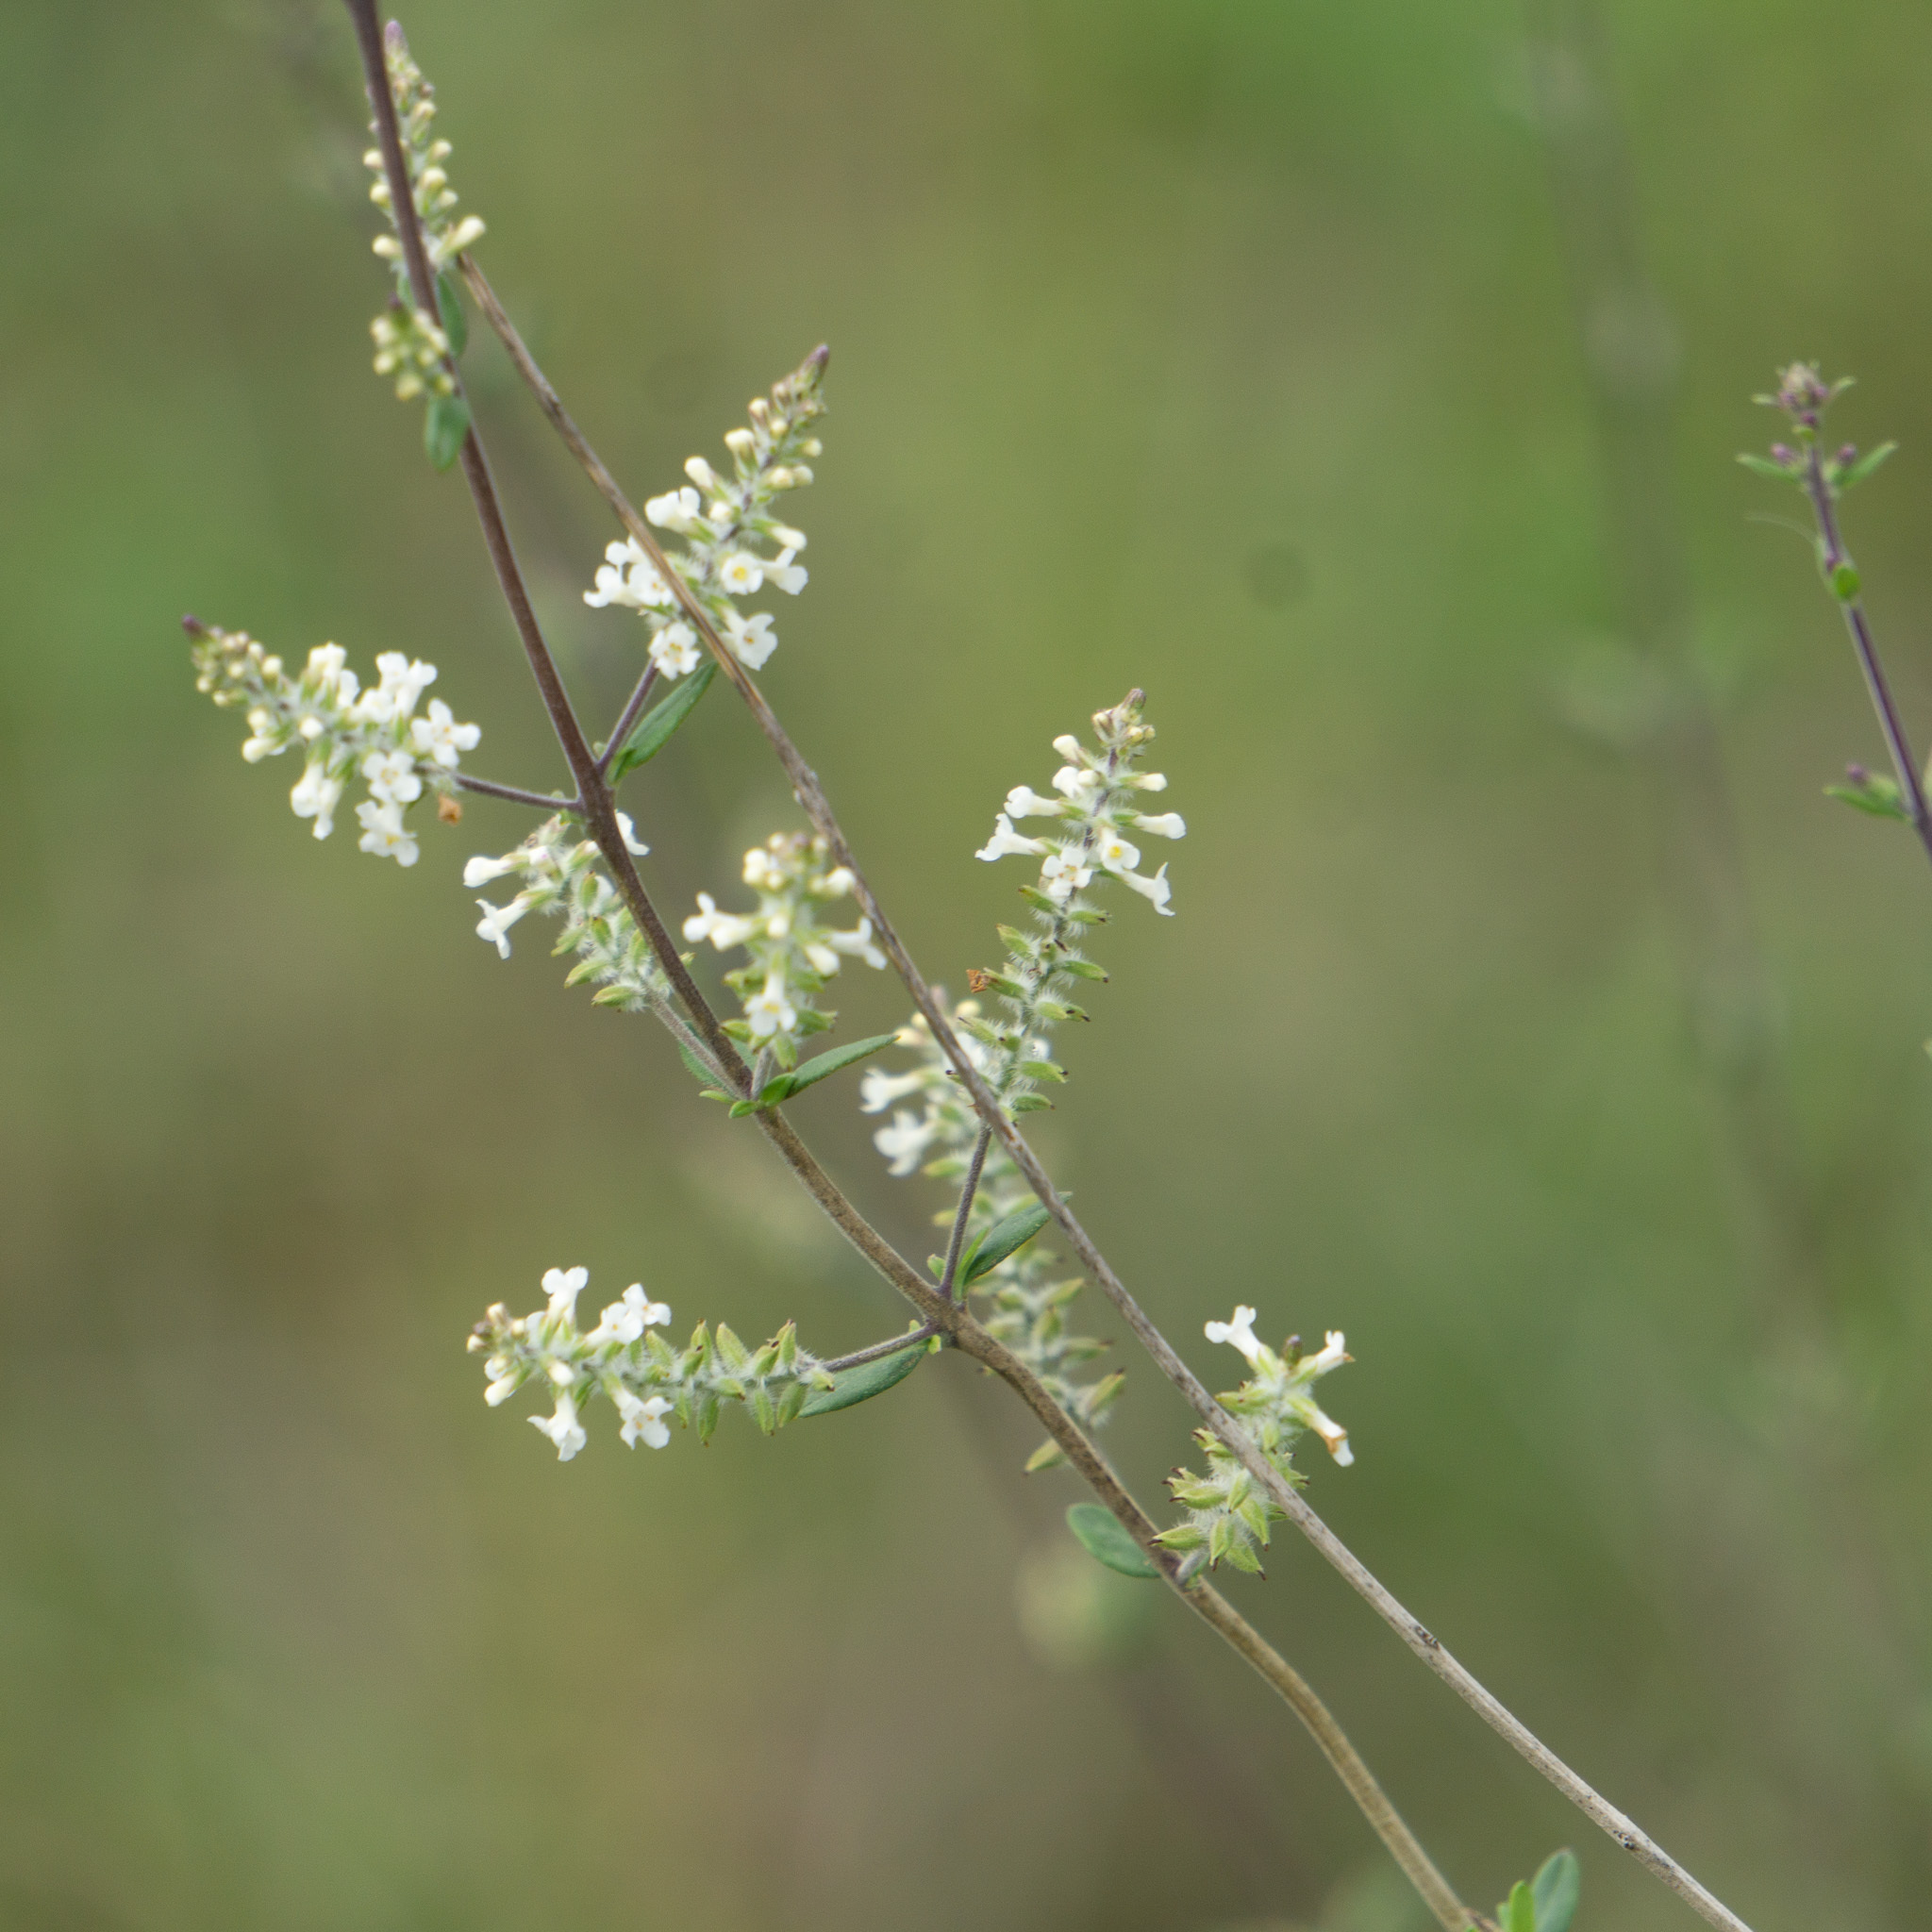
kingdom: Plantae
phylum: Tracheophyta
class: Magnoliopsida
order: Lamiales
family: Verbenaceae
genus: Aloysia
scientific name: Aloysia gratissima
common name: Common bee-brush
